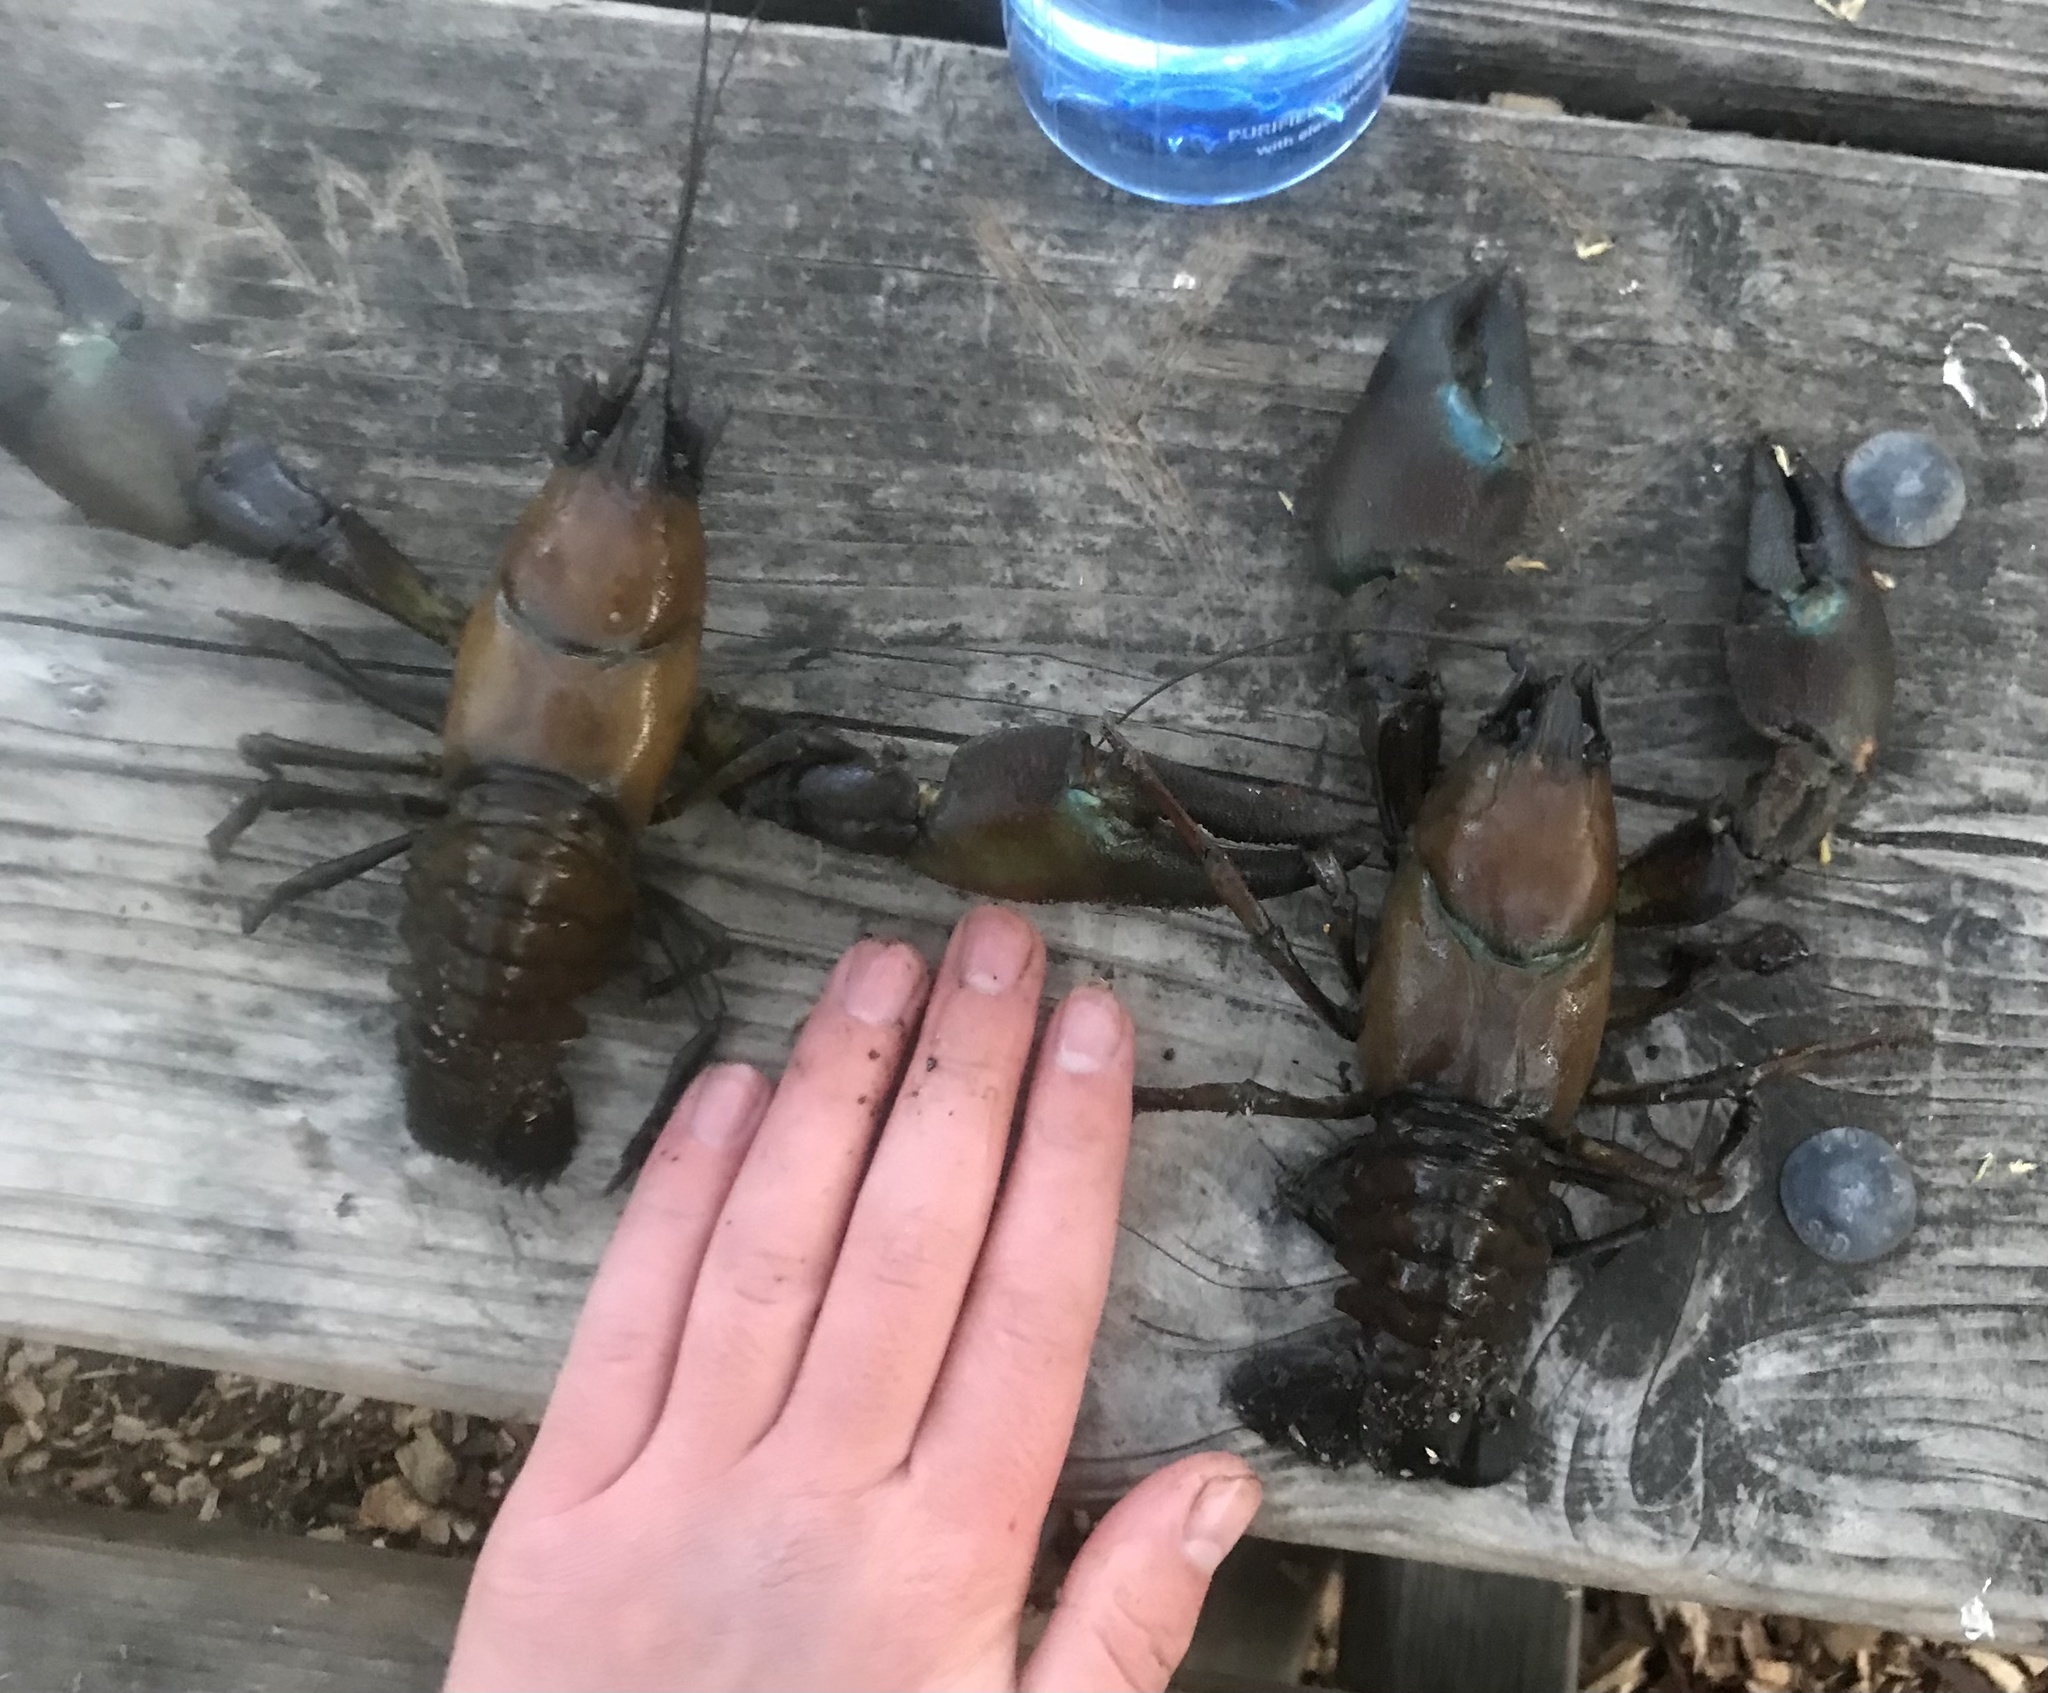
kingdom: Animalia
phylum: Arthropoda
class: Malacostraca
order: Decapoda
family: Astacidae
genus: Pacifastacus
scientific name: Pacifastacus leniusculus
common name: Signal crayfish
